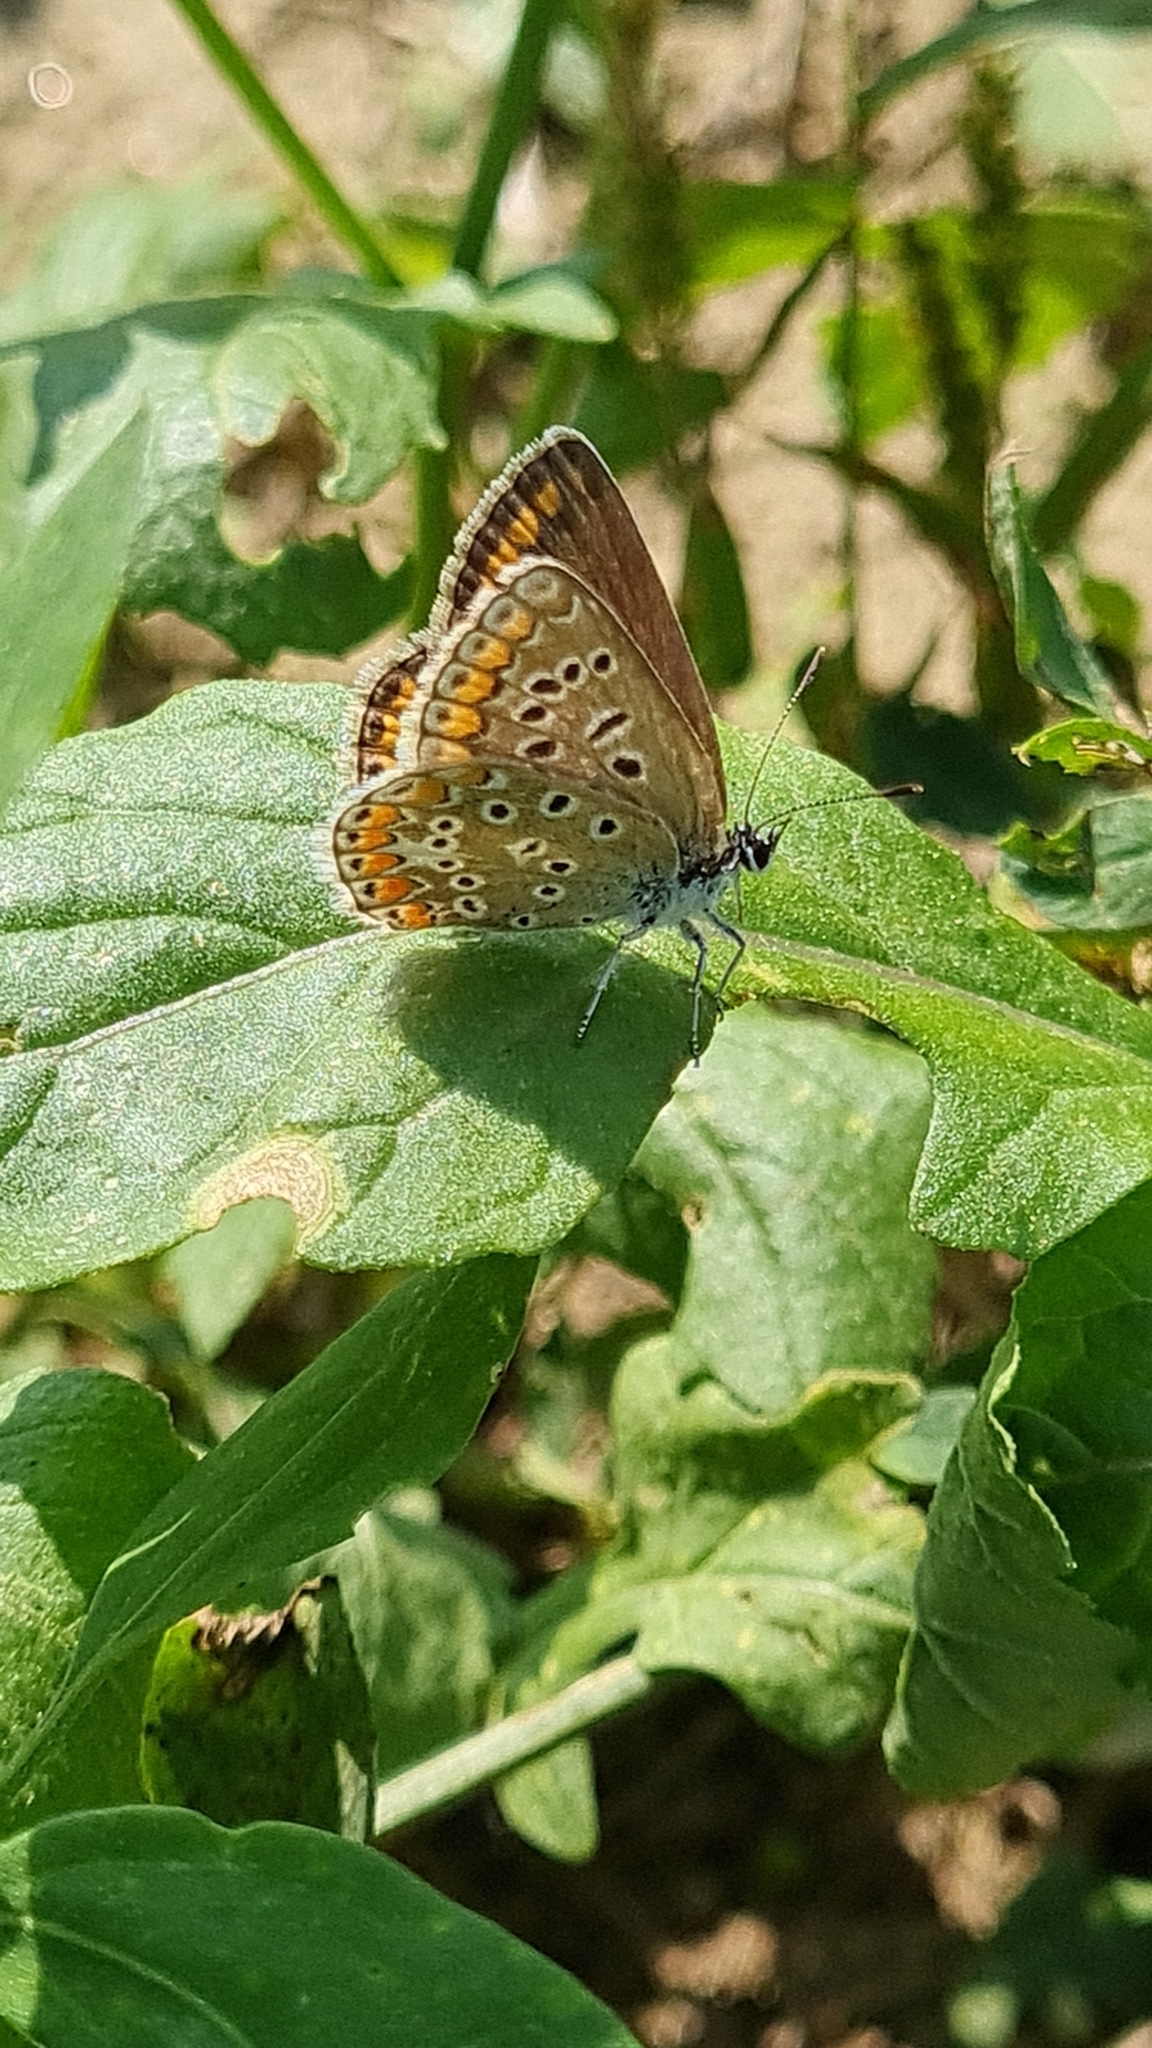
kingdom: Animalia
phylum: Arthropoda
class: Insecta
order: Lepidoptera
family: Lycaenidae
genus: Polyommatus
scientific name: Polyommatus icarus
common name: Common blue
